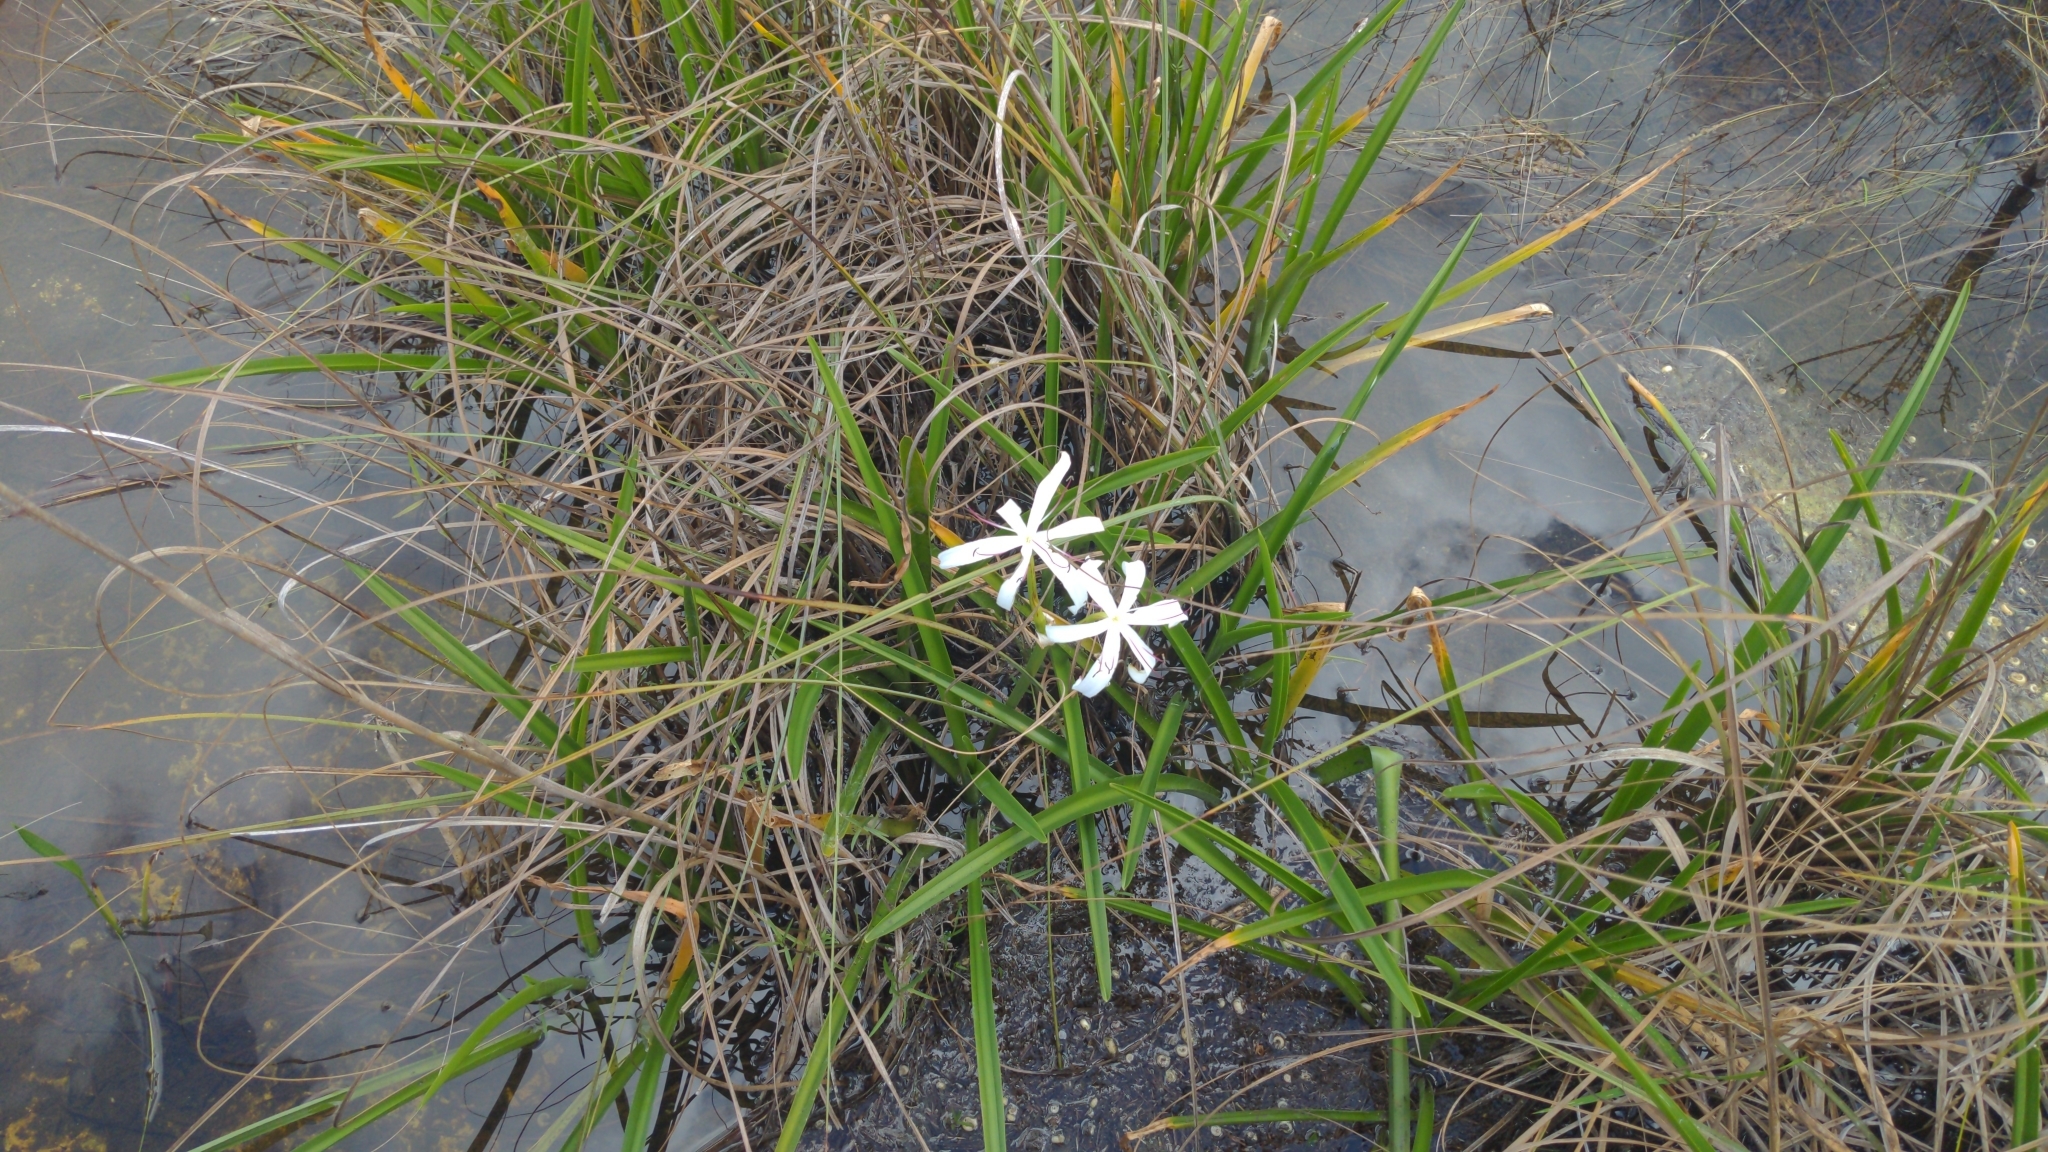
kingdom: Plantae
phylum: Tracheophyta
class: Liliopsida
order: Asparagales
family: Amaryllidaceae
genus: Crinum
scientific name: Crinum americanum
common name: Florida swamp-lily
